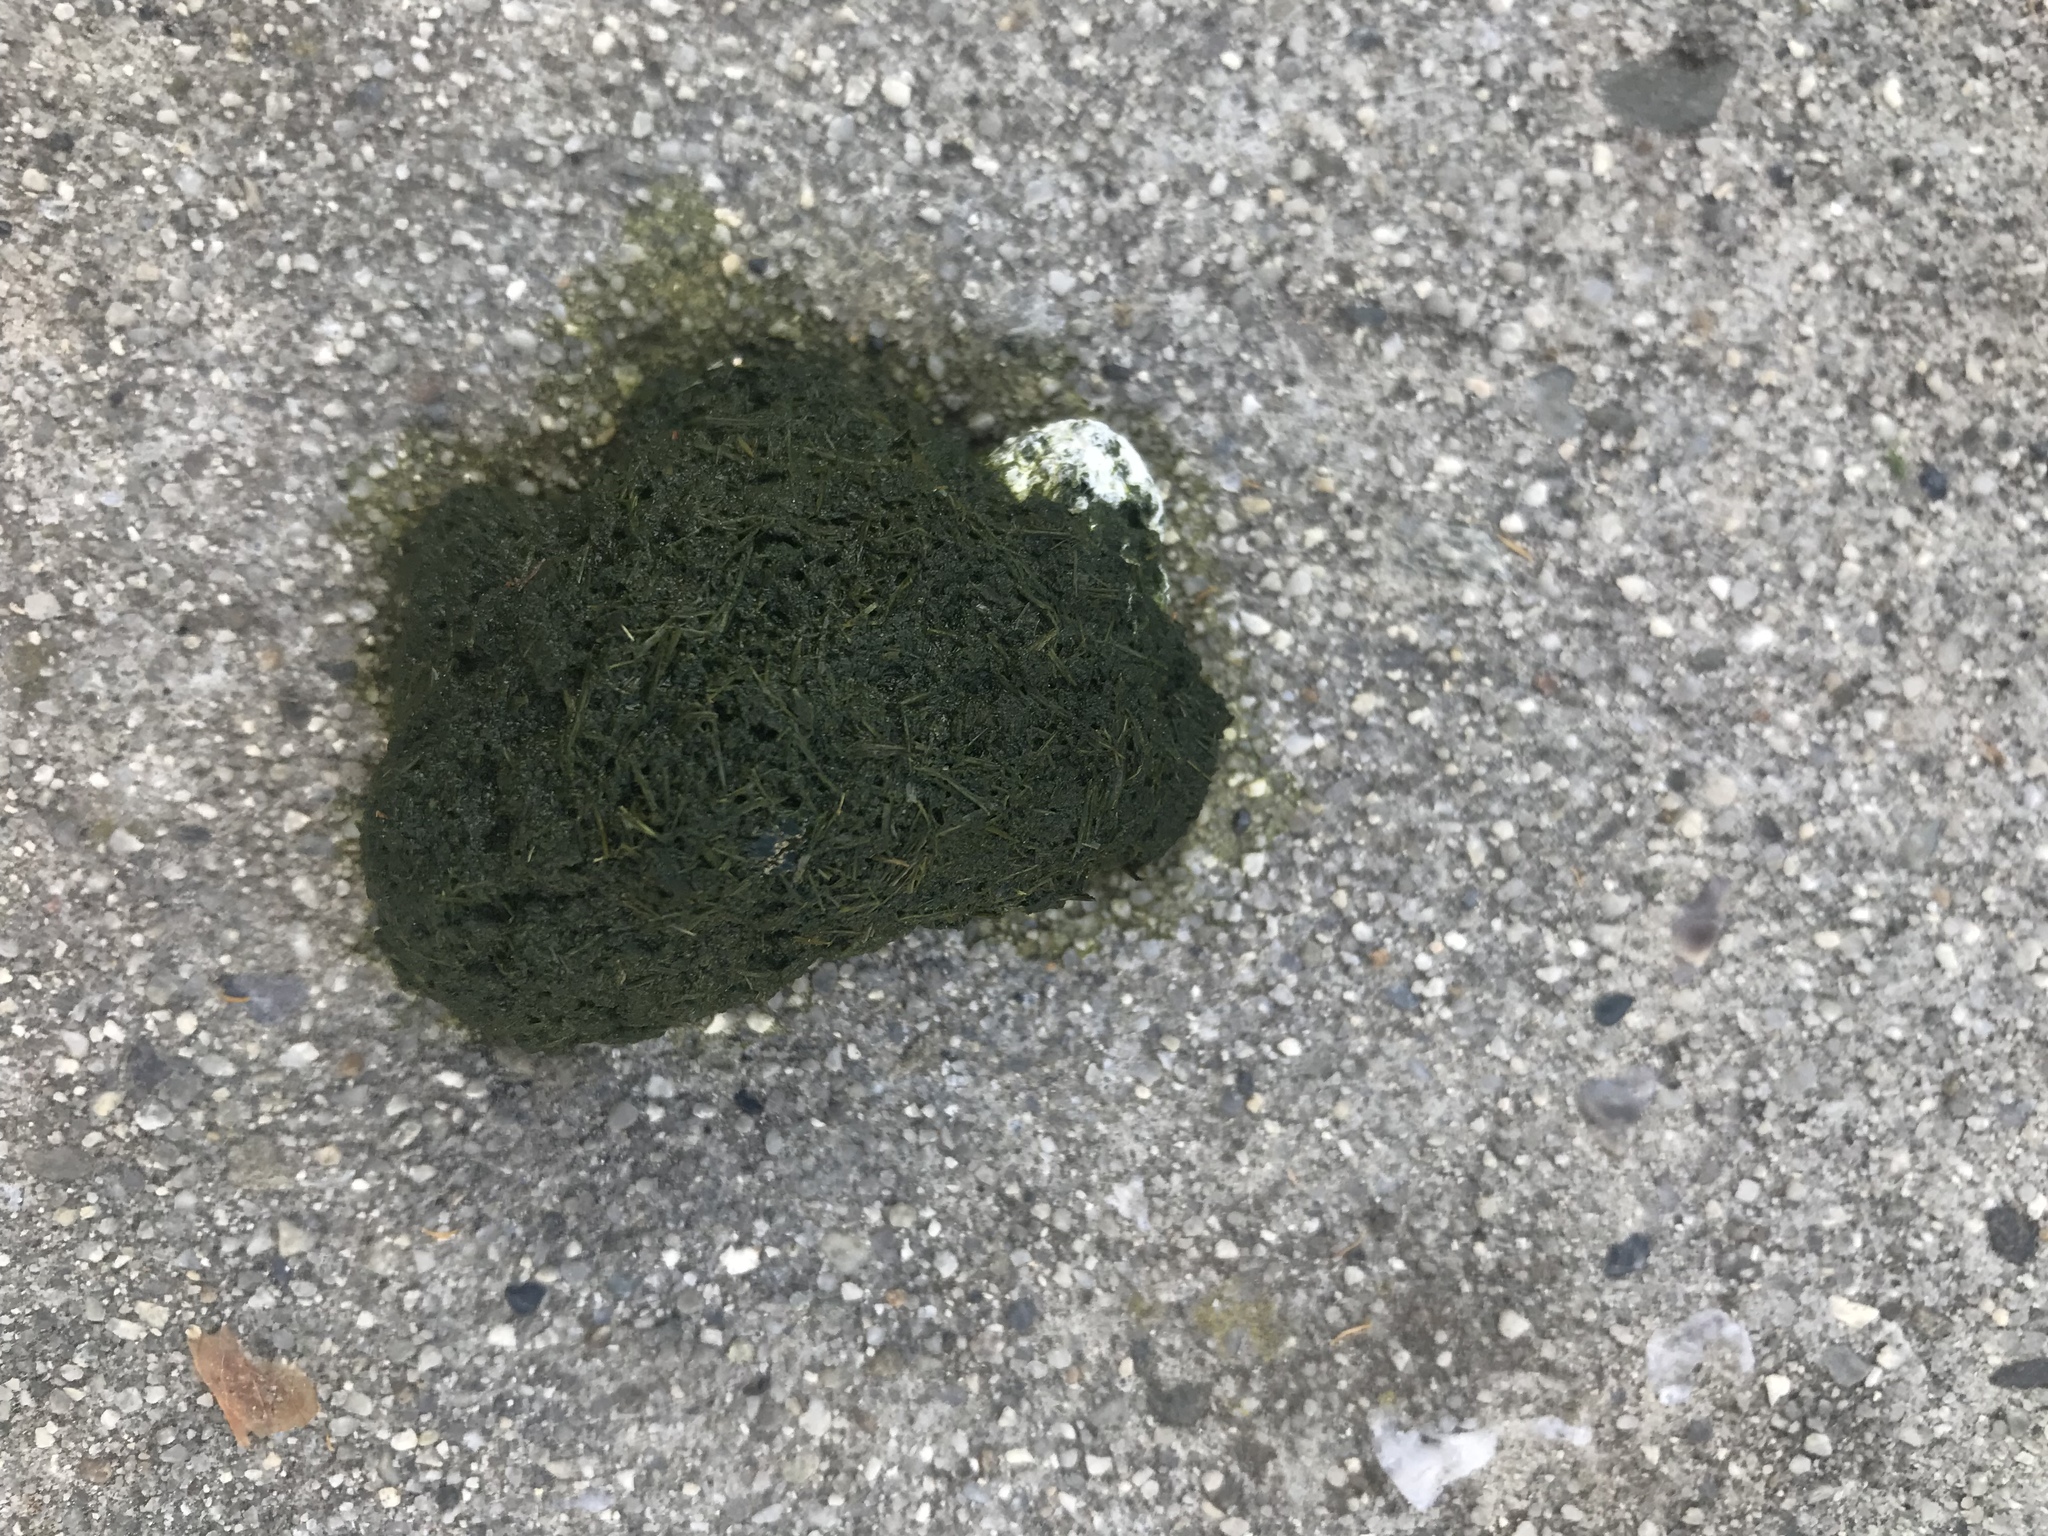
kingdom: Animalia
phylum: Chordata
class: Aves
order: Anseriformes
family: Anatidae
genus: Branta
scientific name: Branta canadensis
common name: Canada goose
